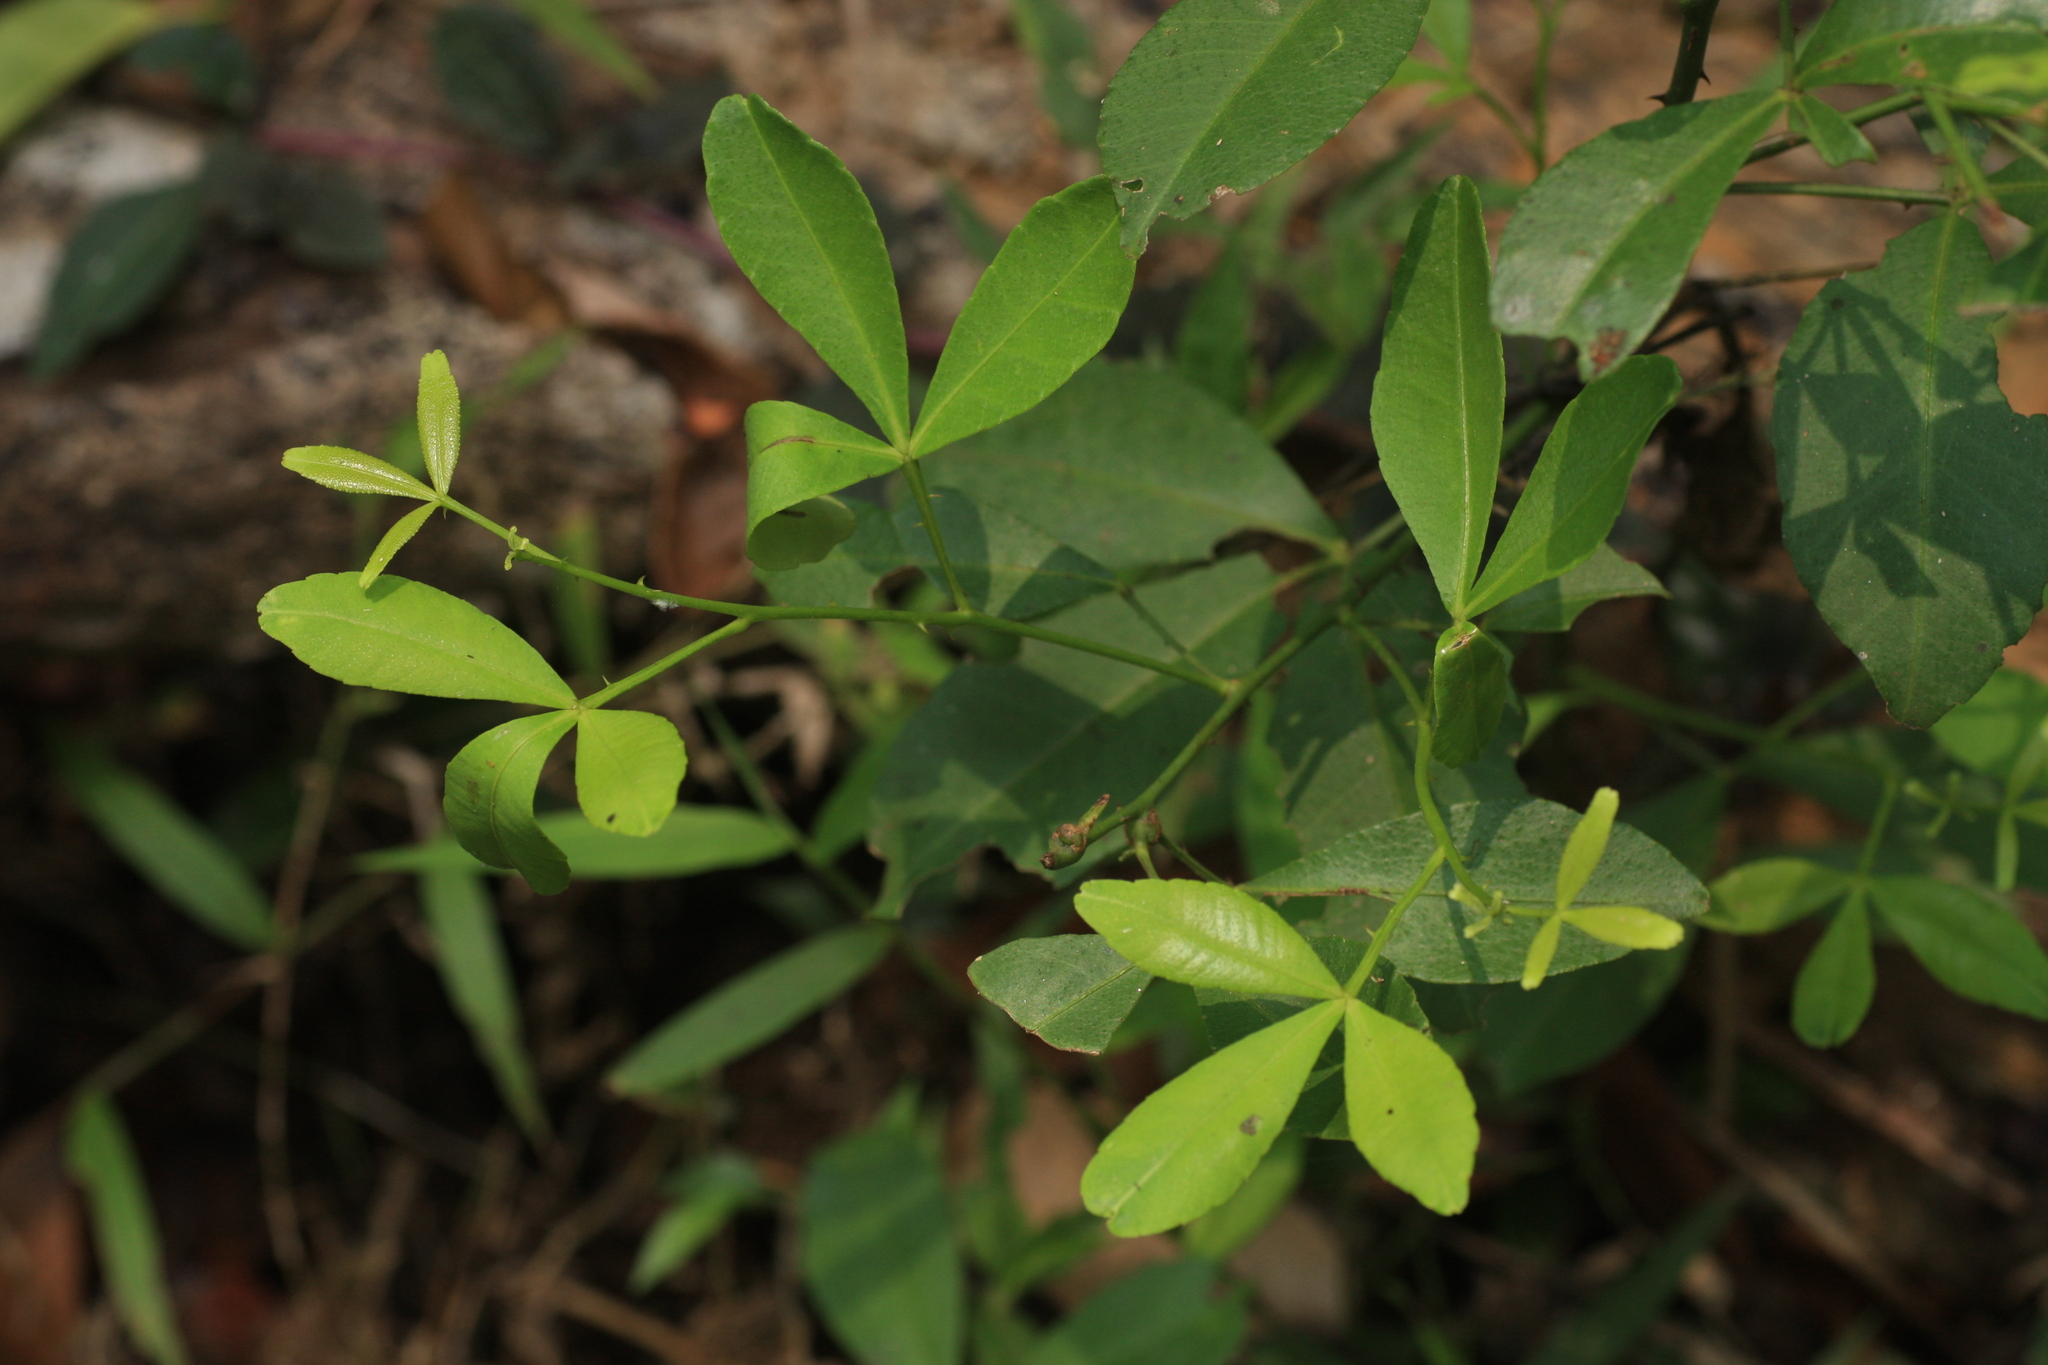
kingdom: Plantae
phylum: Tracheophyta
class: Magnoliopsida
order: Sapindales
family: Rutaceae
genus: Zanthoxylum
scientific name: Zanthoxylum asiaticum
